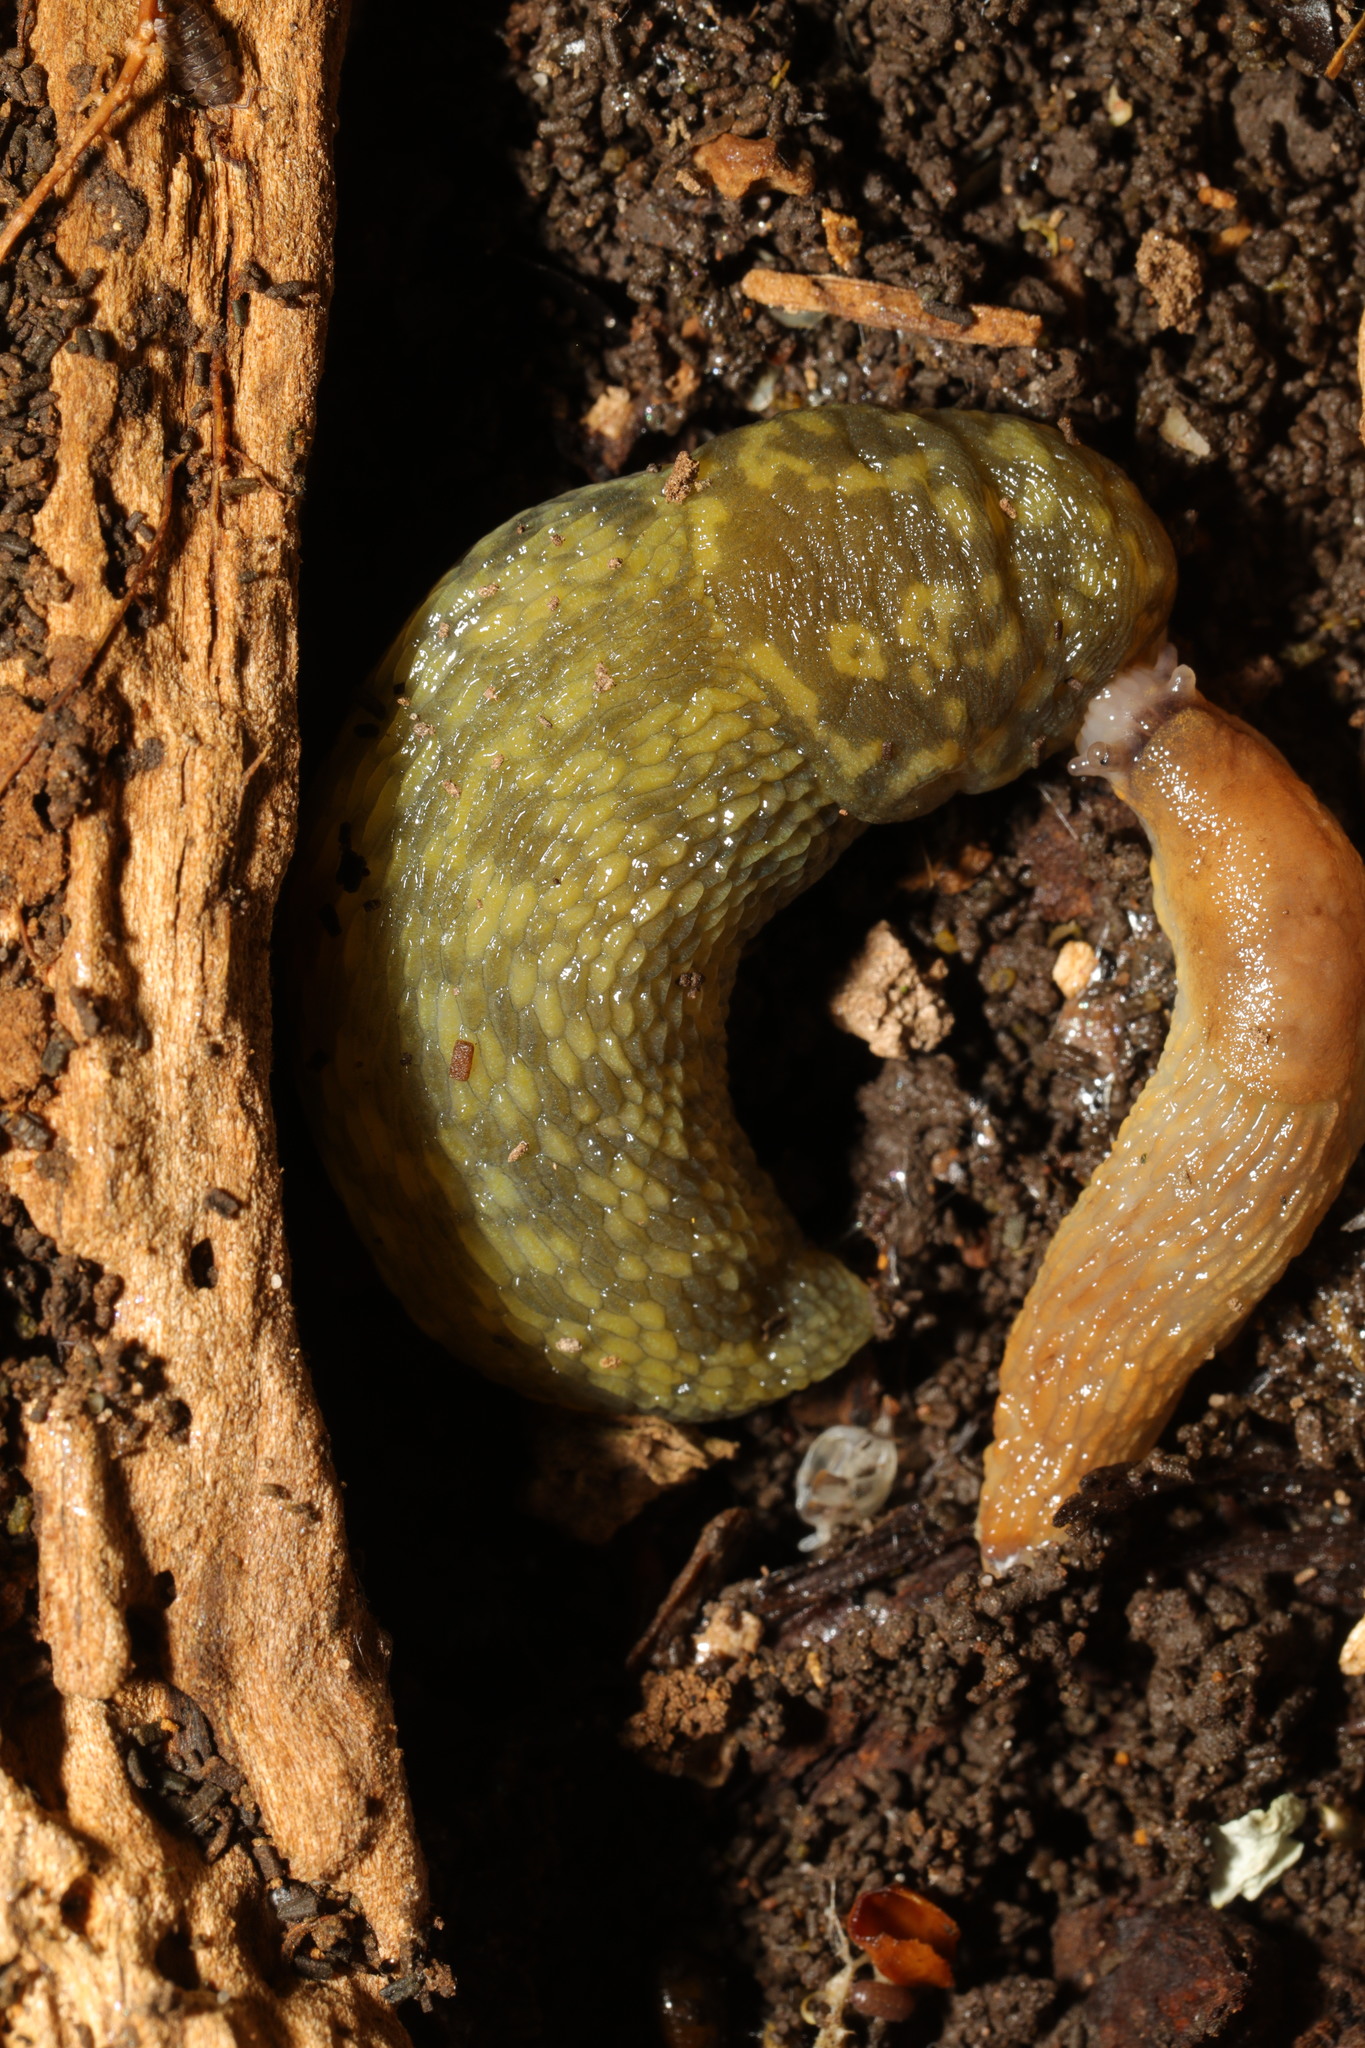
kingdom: Animalia
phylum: Mollusca
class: Gastropoda
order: Stylommatophora
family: Limacidae
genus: Limacus
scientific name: Limacus maculatus
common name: Irish yellow slug
